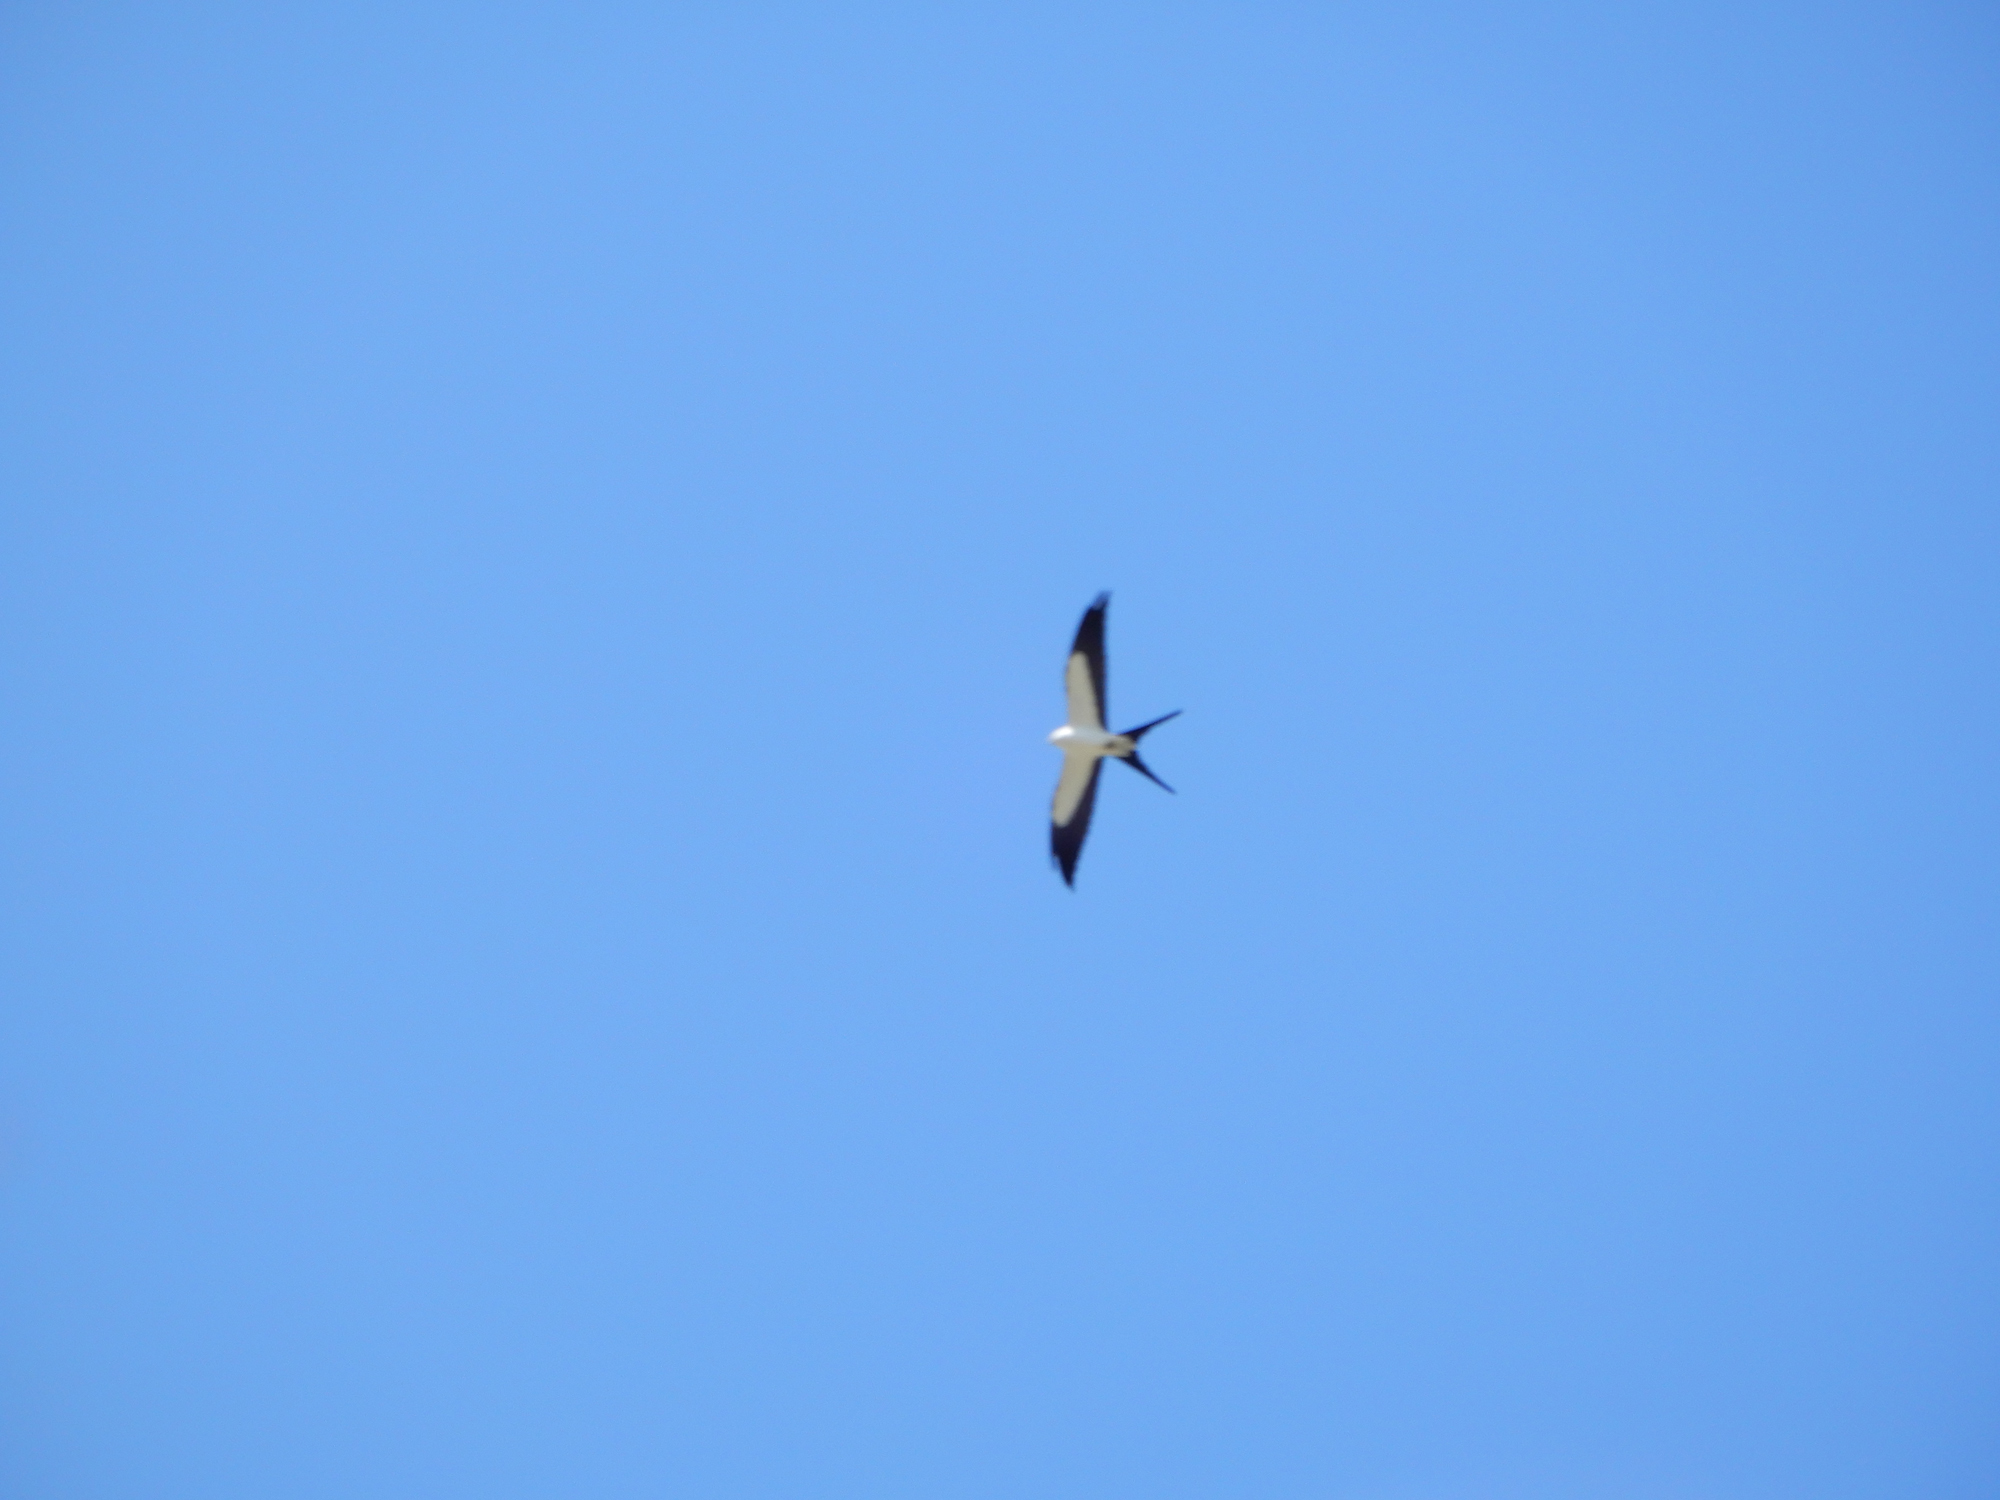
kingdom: Animalia
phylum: Chordata
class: Aves
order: Accipitriformes
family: Accipitridae
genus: Elanoides
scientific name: Elanoides forficatus
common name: Swallow-tailed kite
